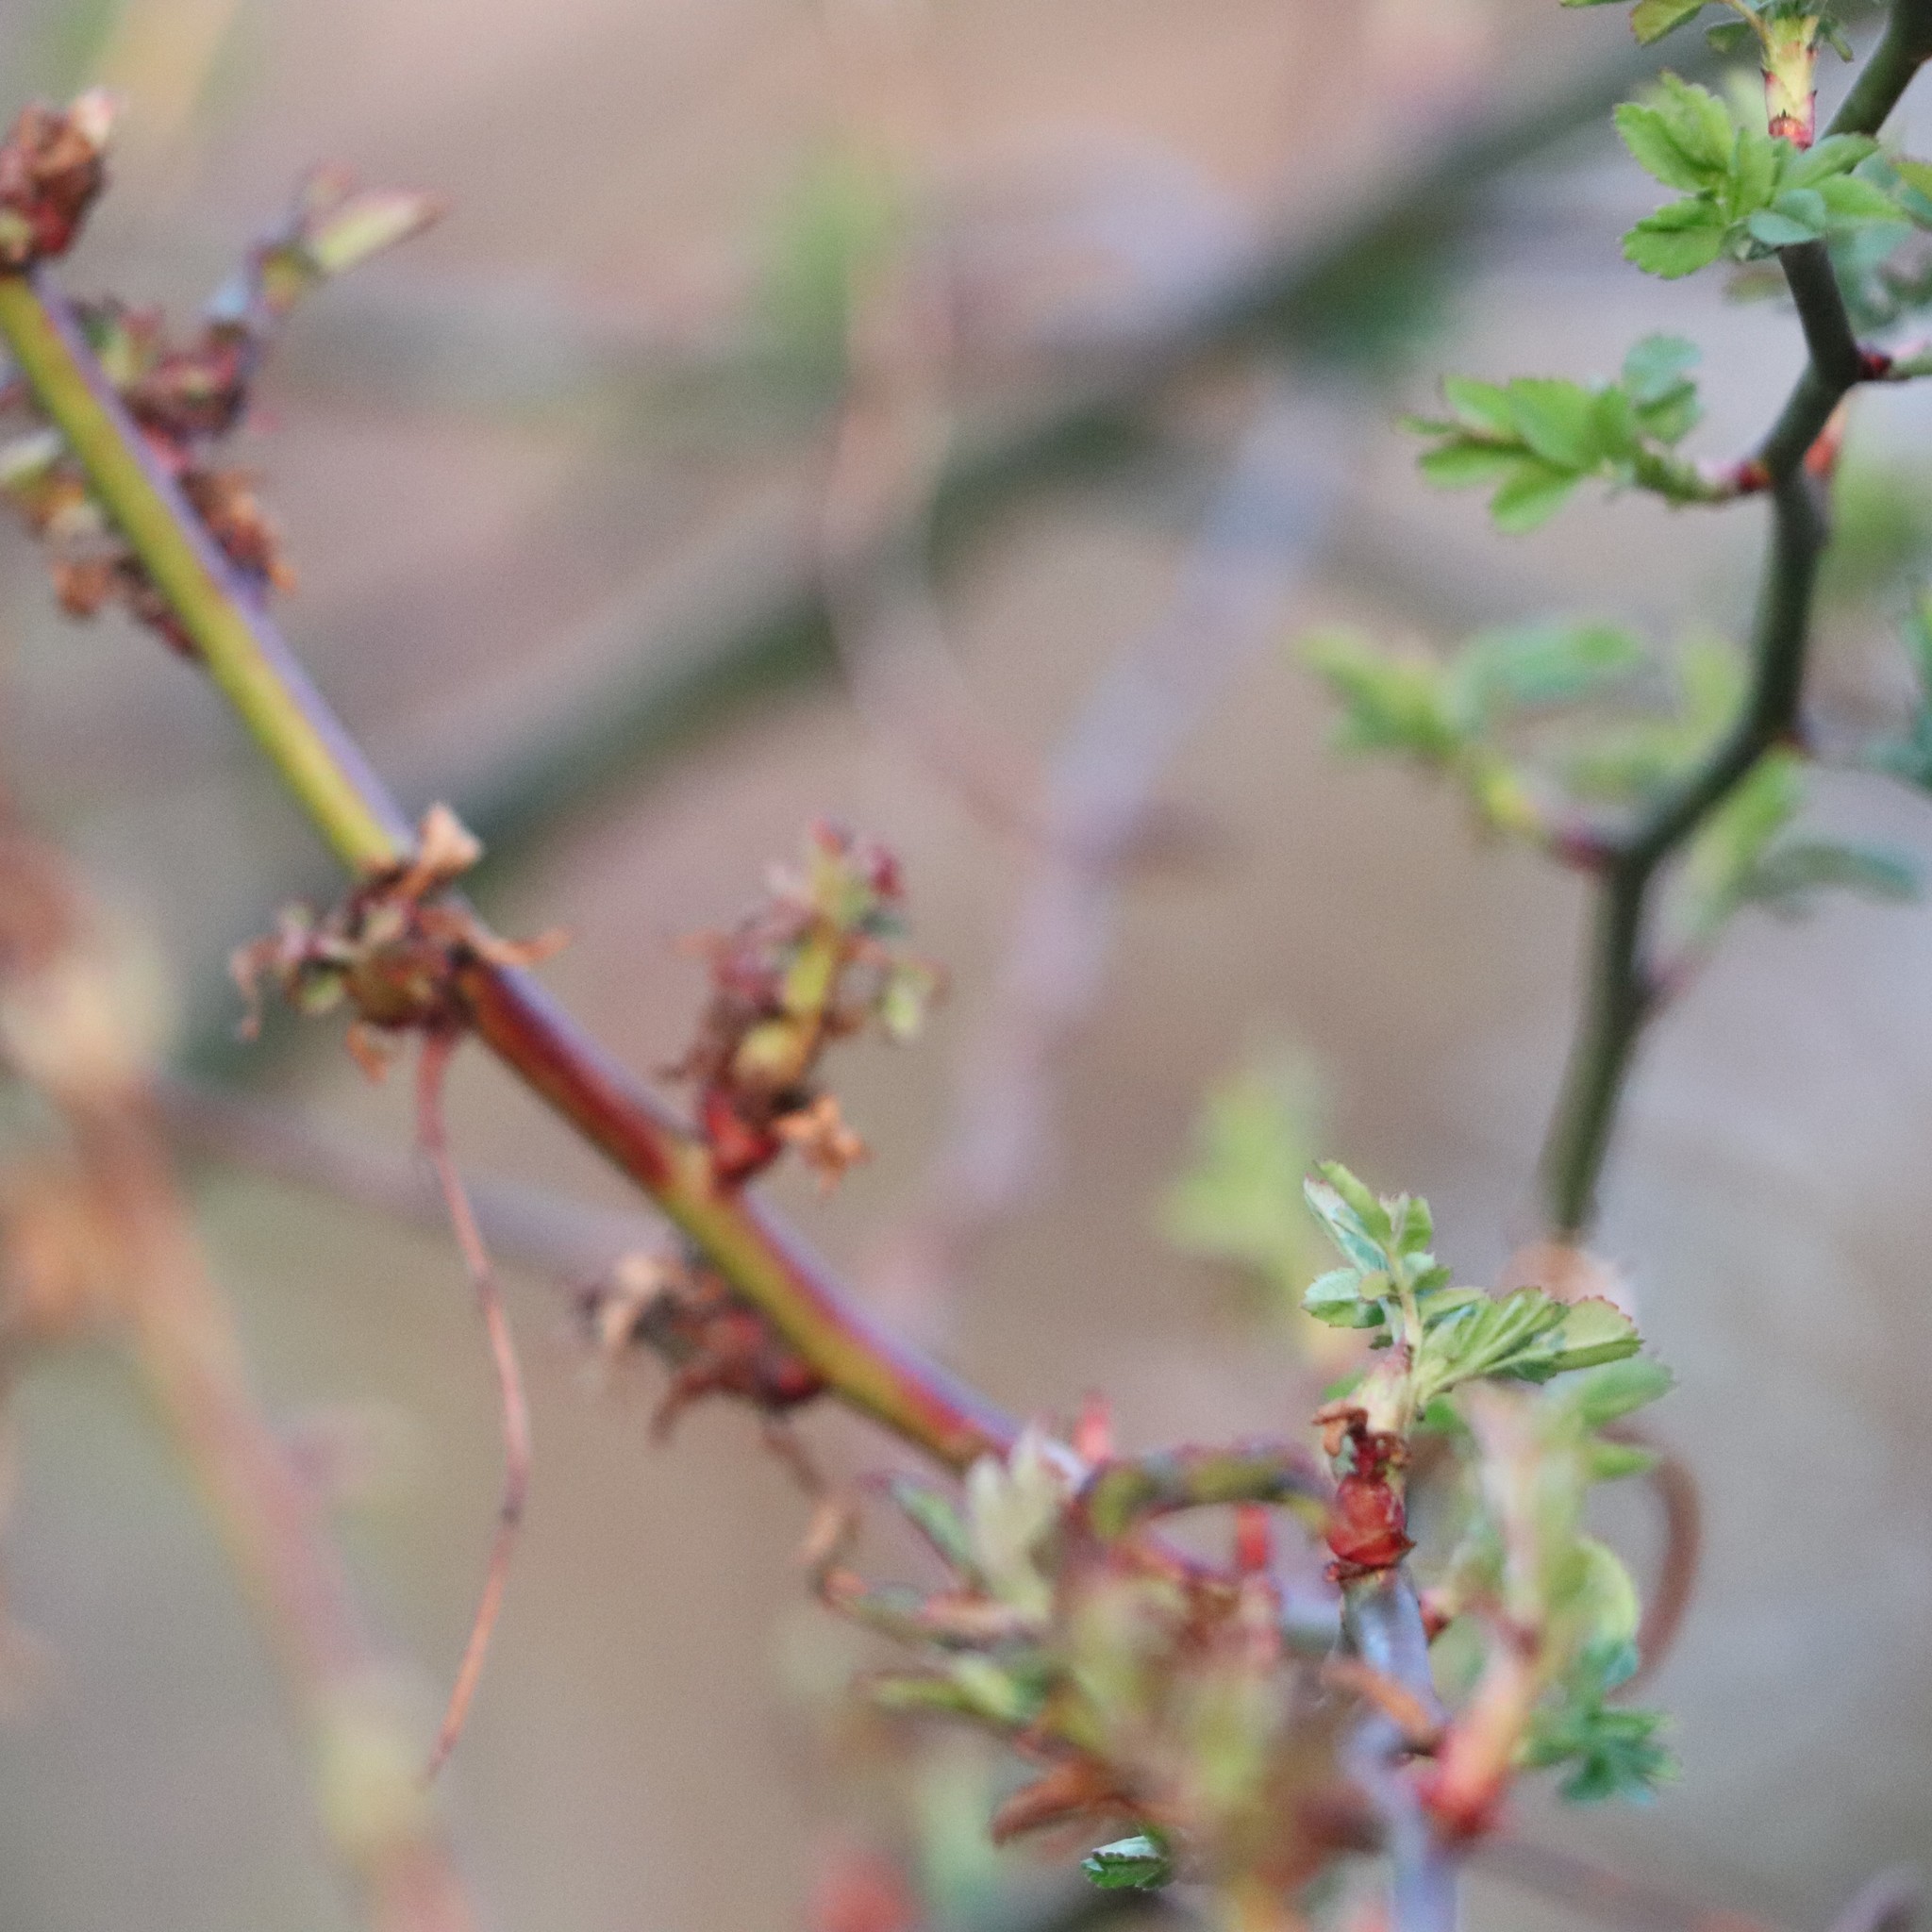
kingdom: Viruses
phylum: Negarnaviricota
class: Ellioviricetes
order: Bunyavirales
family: Fimoviridae
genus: Emaravirus
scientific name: Emaravirus rosae
